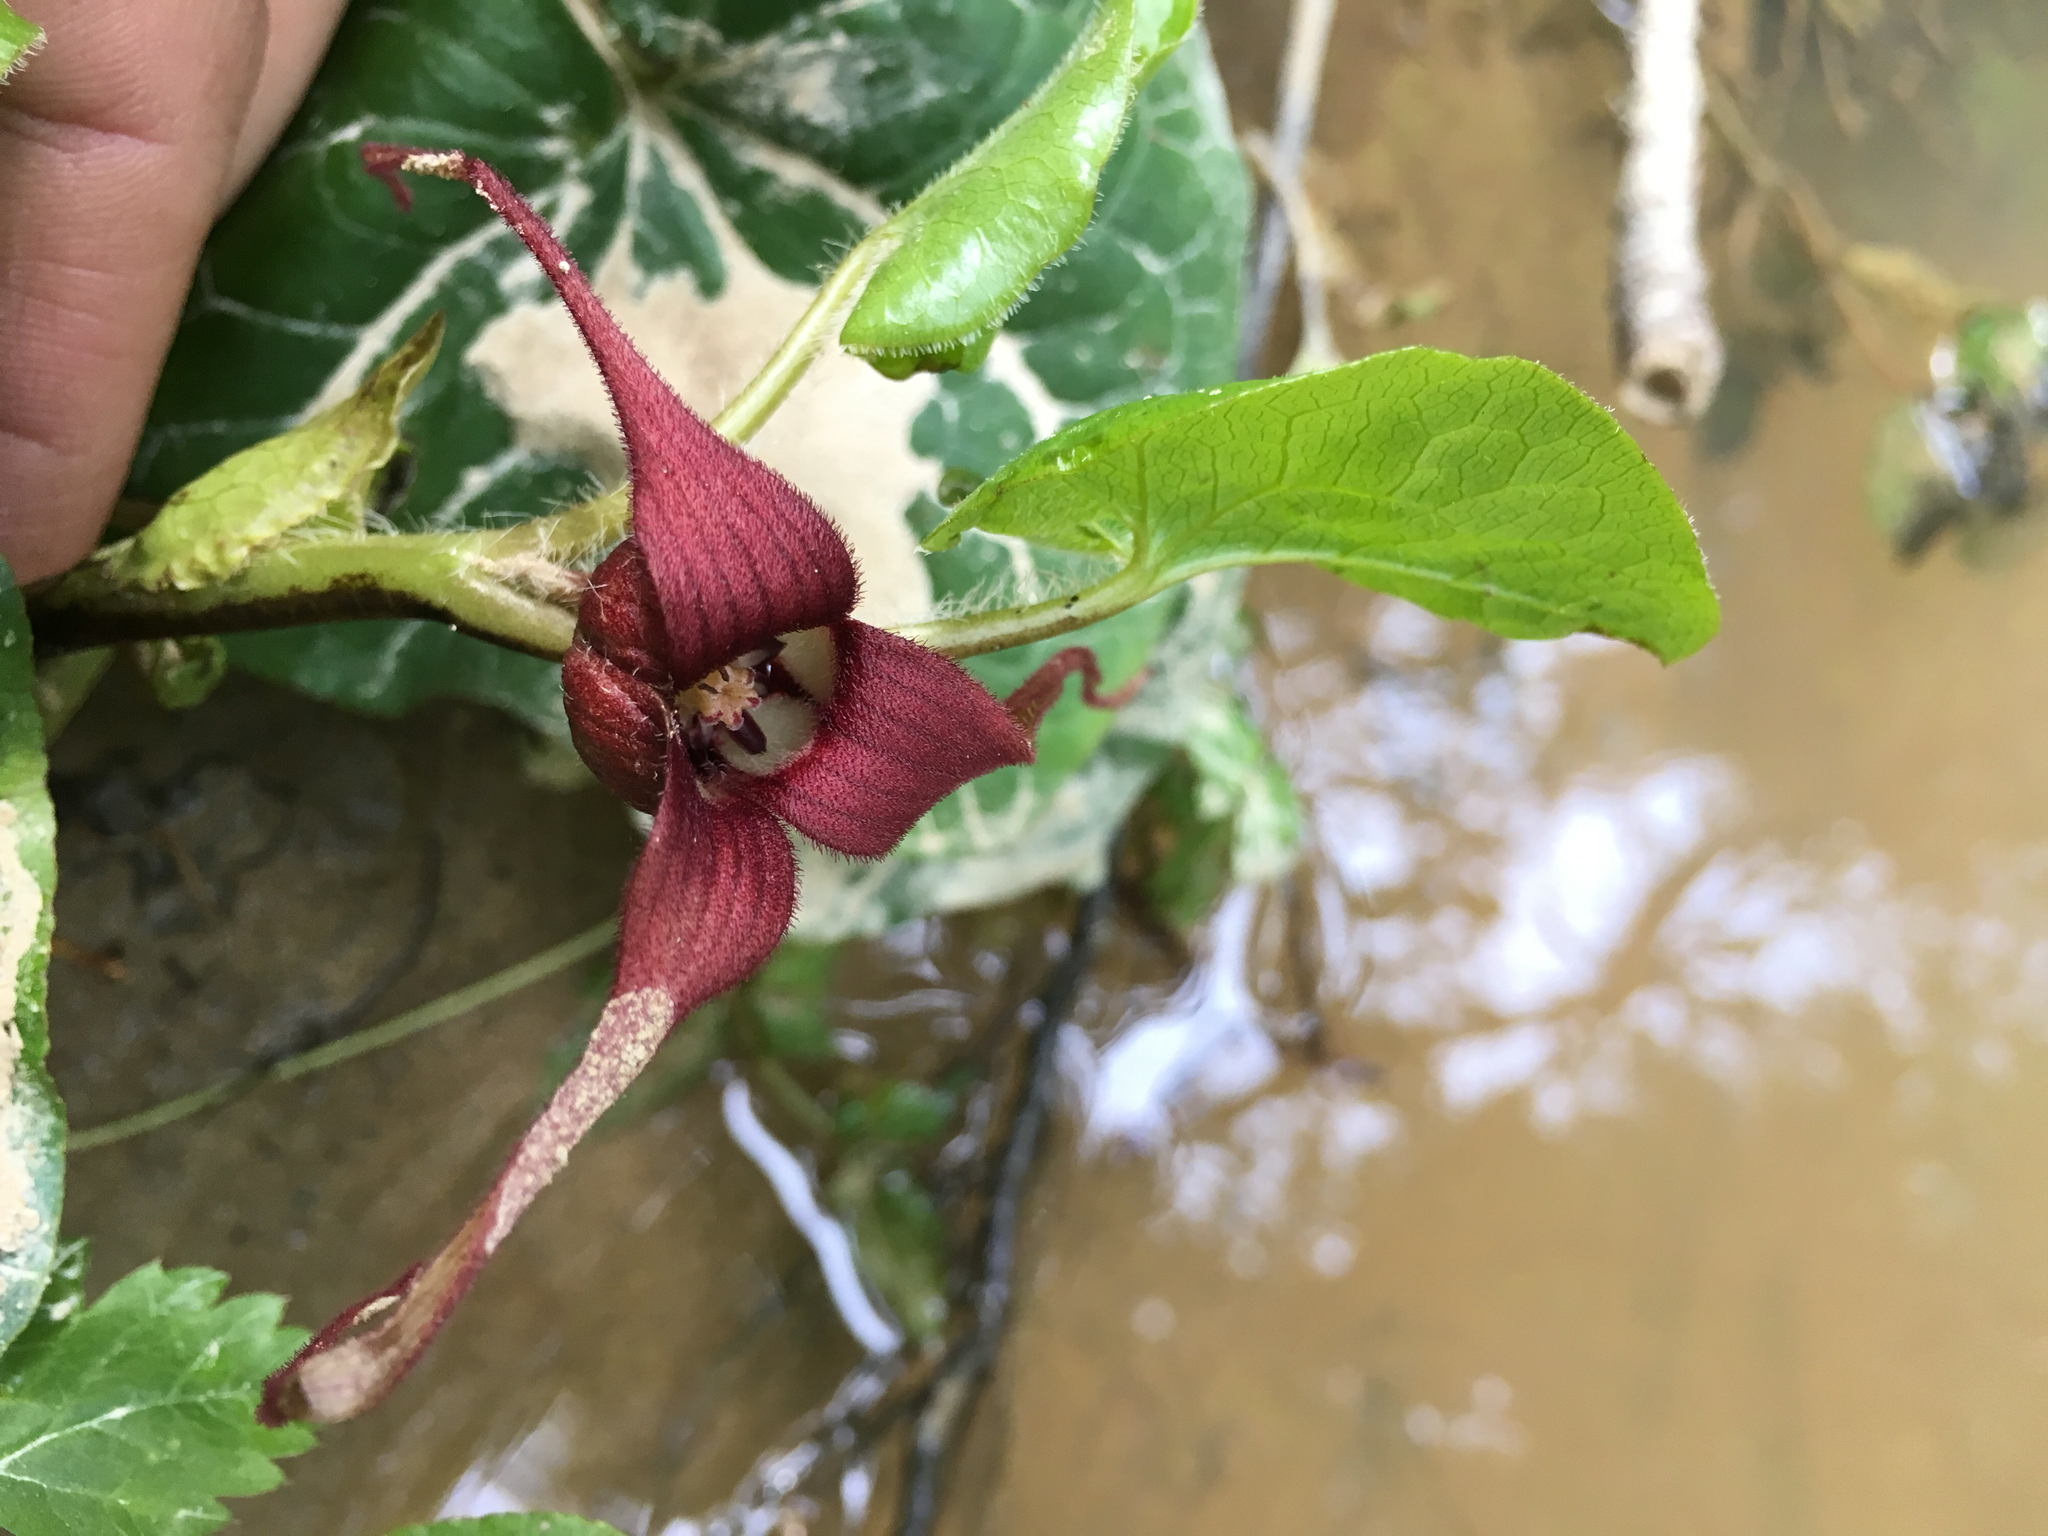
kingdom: Plantae
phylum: Tracheophyta
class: Magnoliopsida
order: Piperales
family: Aristolochiaceae
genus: Asarum
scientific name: Asarum caudatum
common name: Wild ginger
